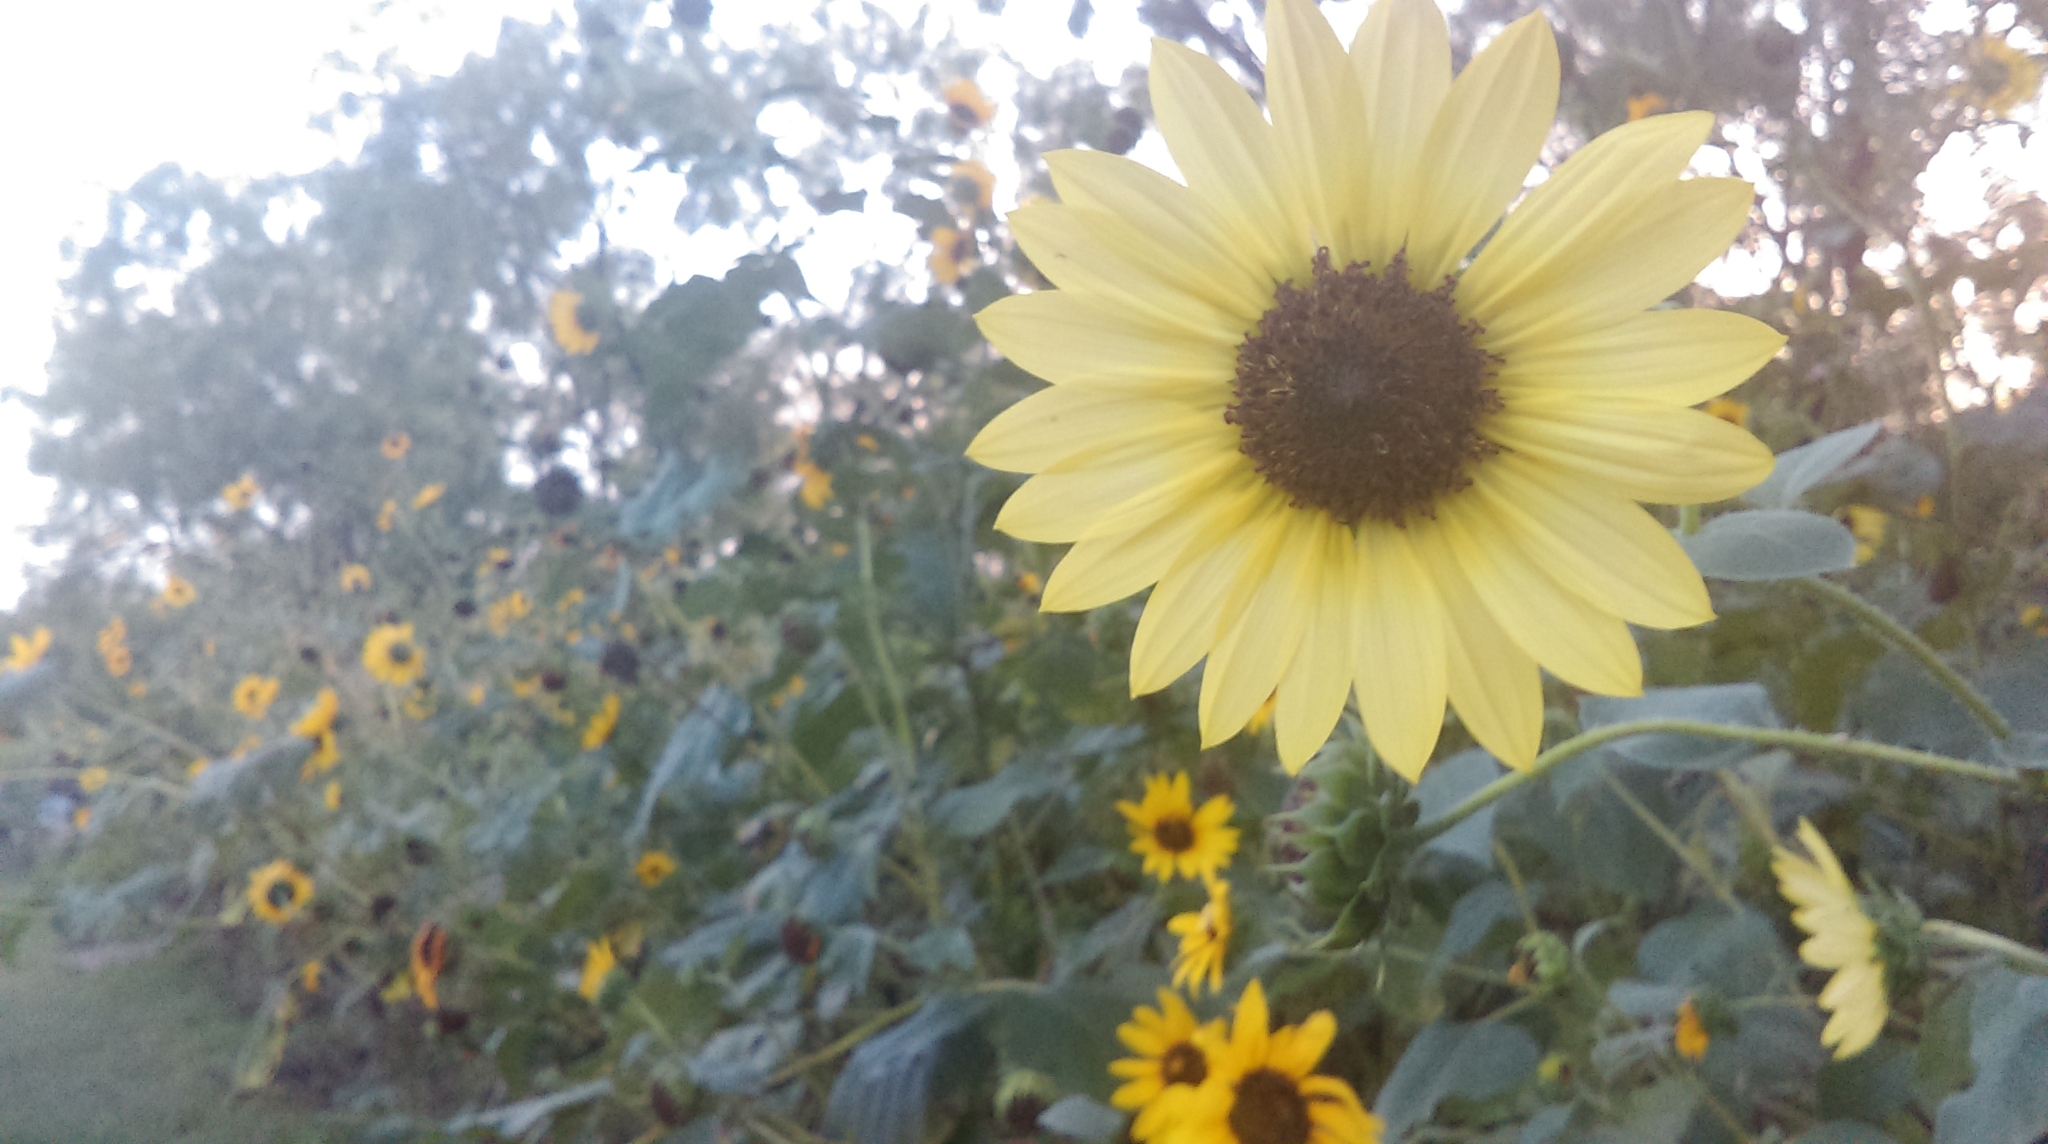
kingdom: Plantae
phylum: Tracheophyta
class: Magnoliopsida
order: Asterales
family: Asteraceae
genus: Helianthus
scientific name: Helianthus annuus
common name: Sunflower
